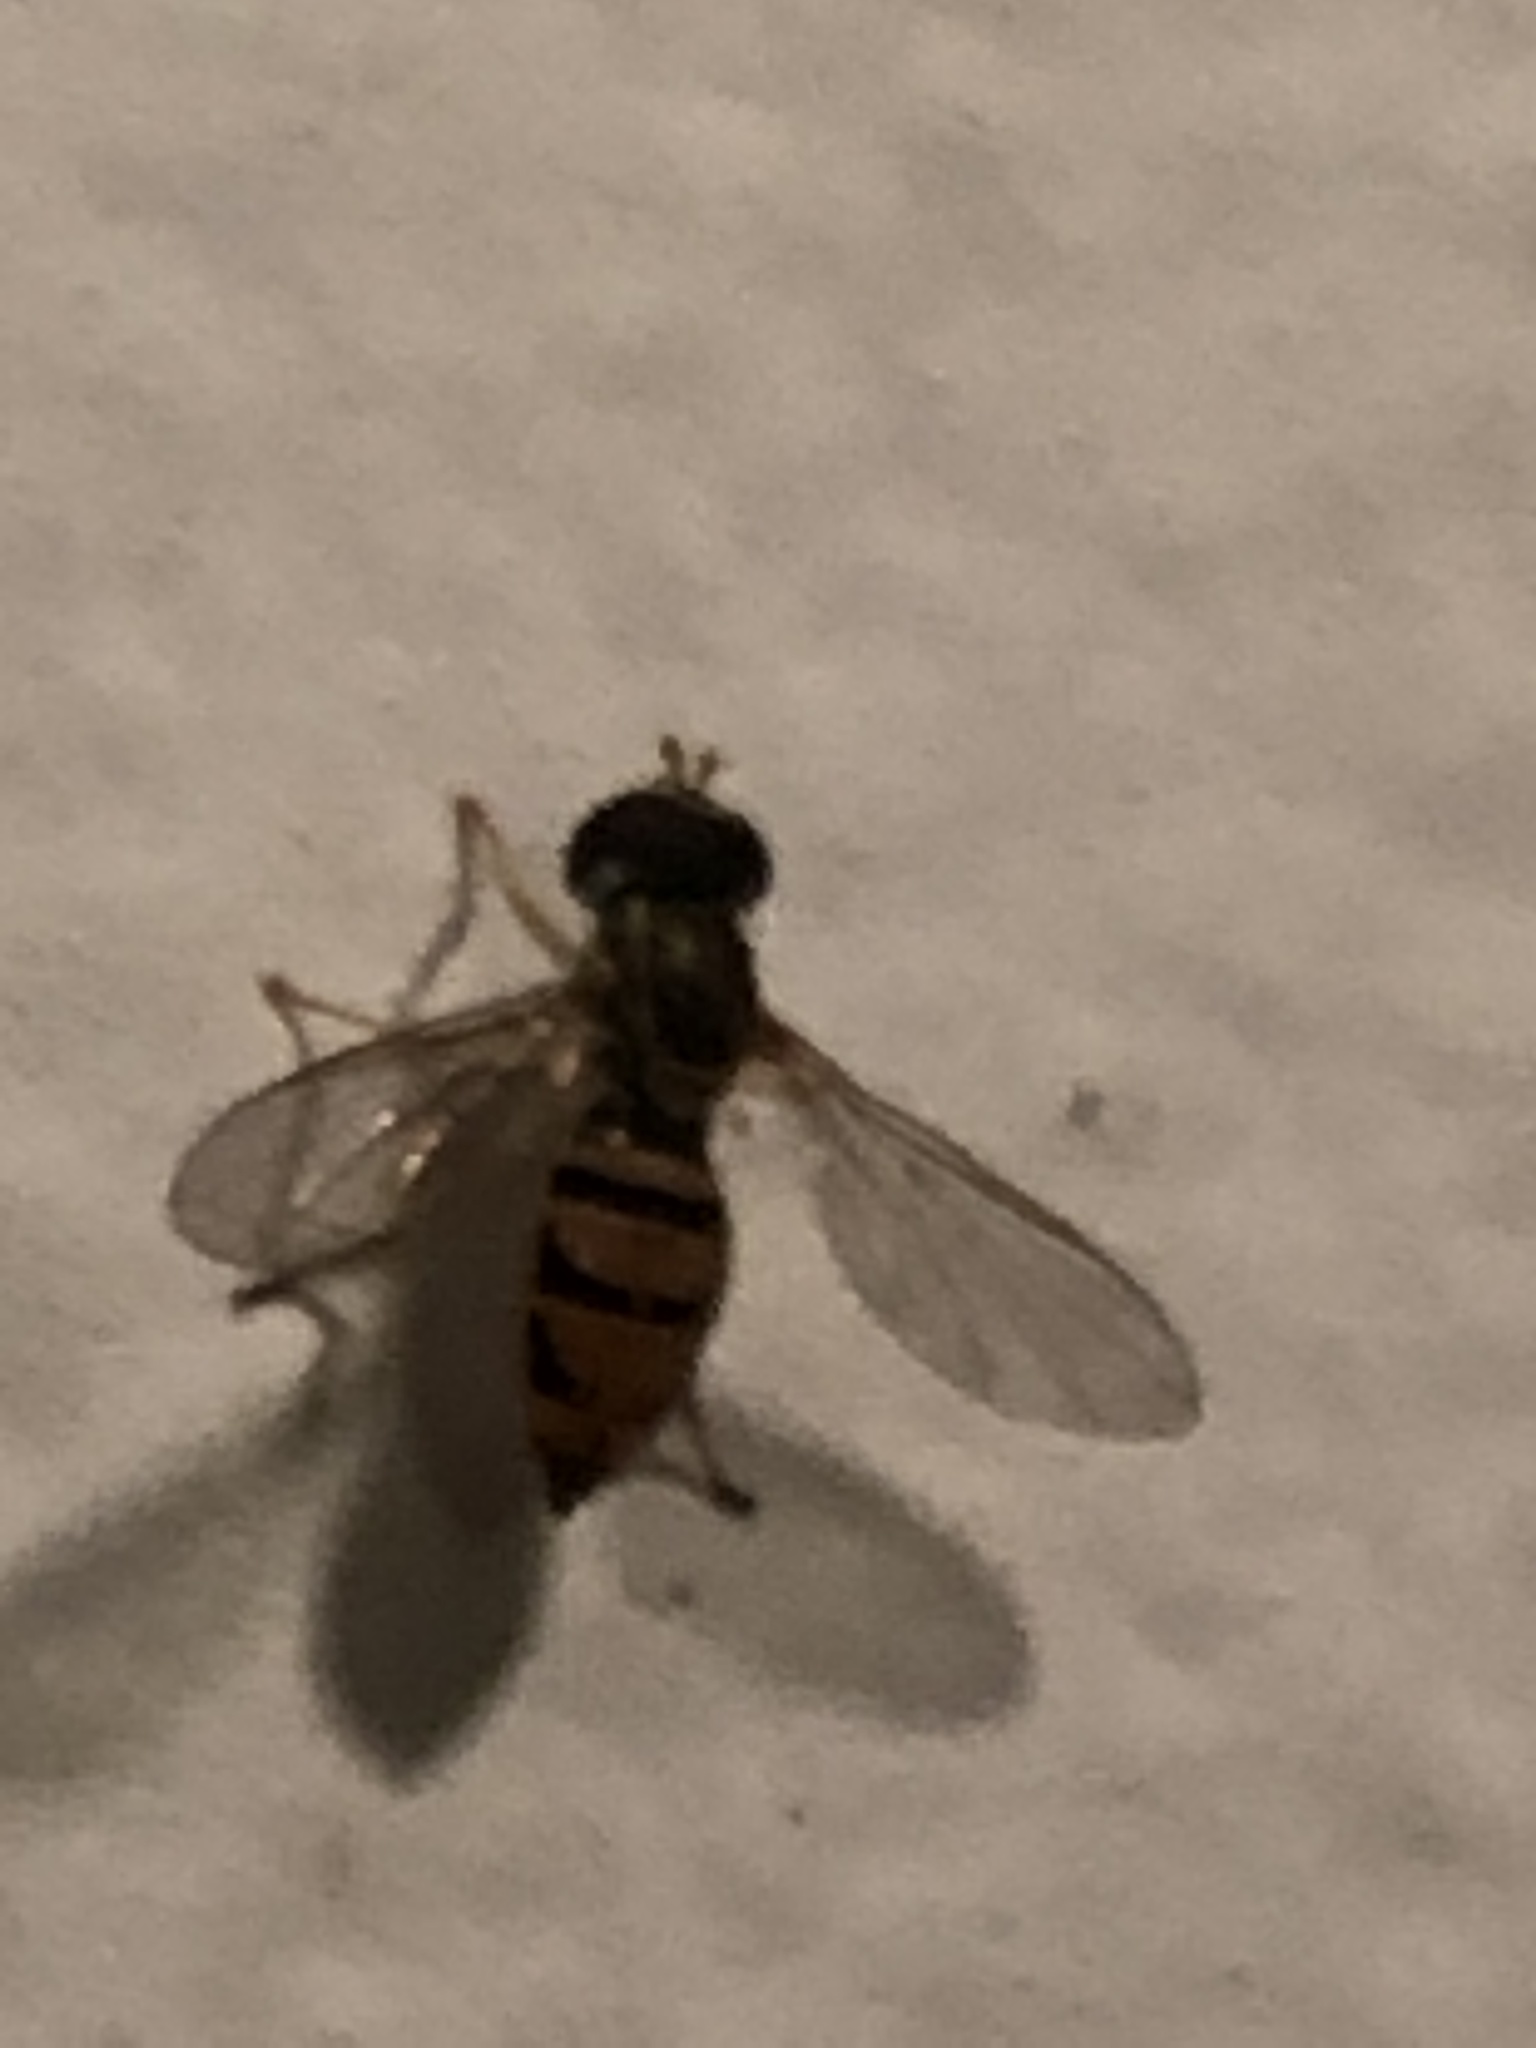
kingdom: Animalia
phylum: Arthropoda
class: Insecta
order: Diptera
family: Syrphidae
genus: Toxomerus
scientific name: Toxomerus marginatus
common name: Syrphid fly
